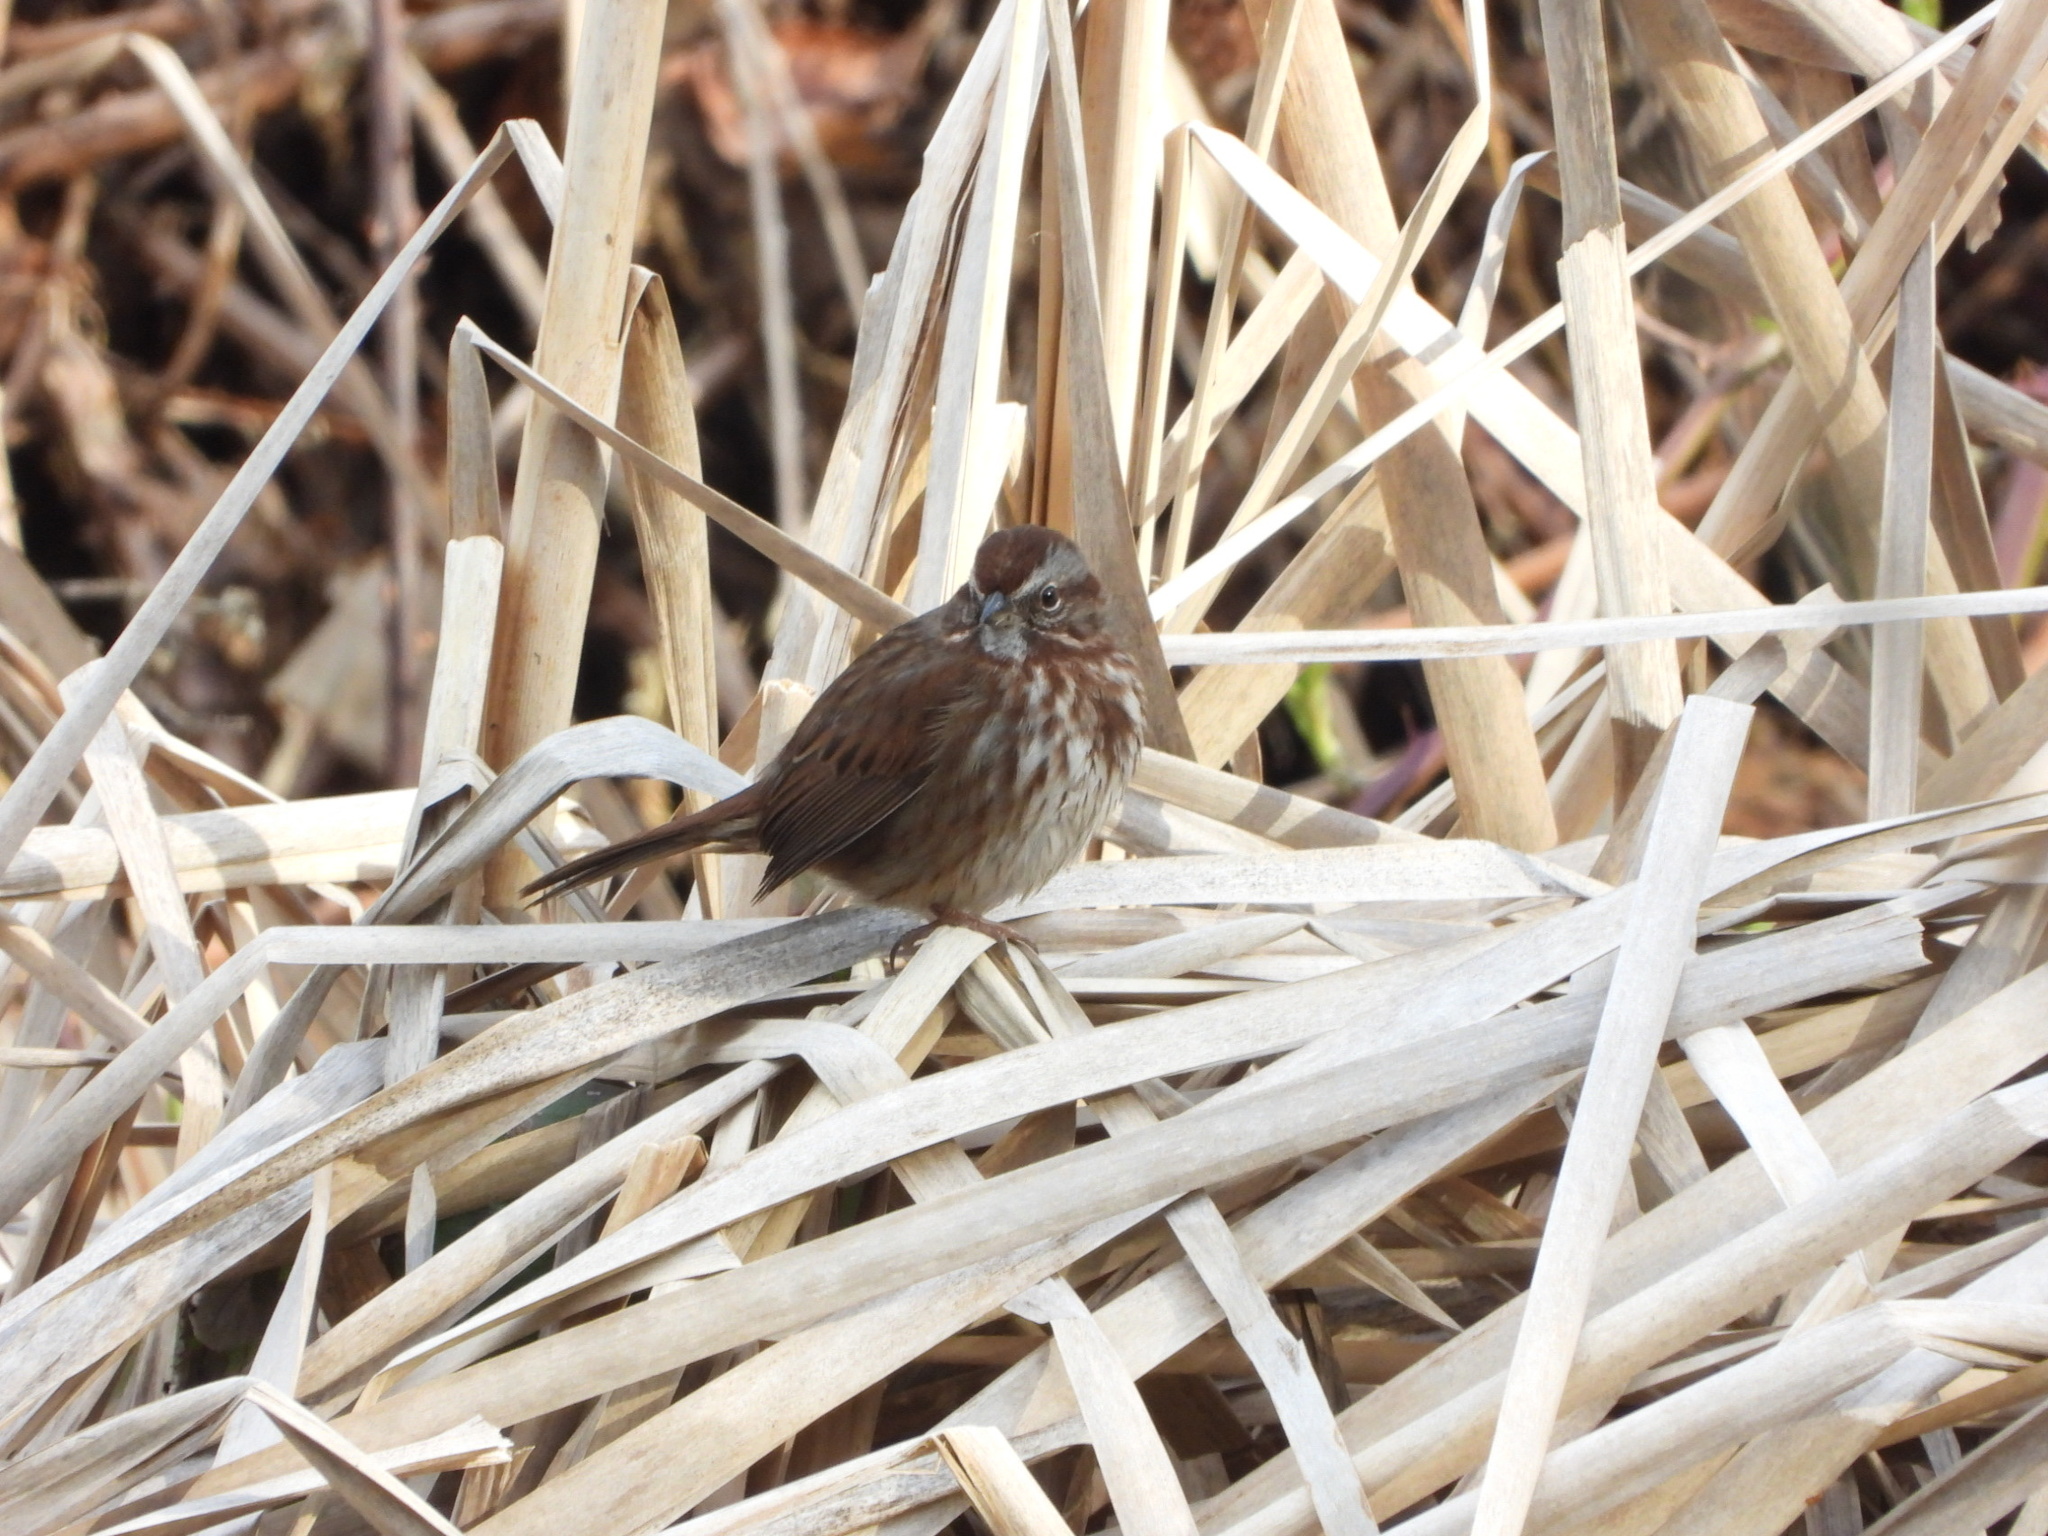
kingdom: Animalia
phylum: Chordata
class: Aves
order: Passeriformes
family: Passerellidae
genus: Melospiza
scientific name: Melospiza melodia
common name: Song sparrow
